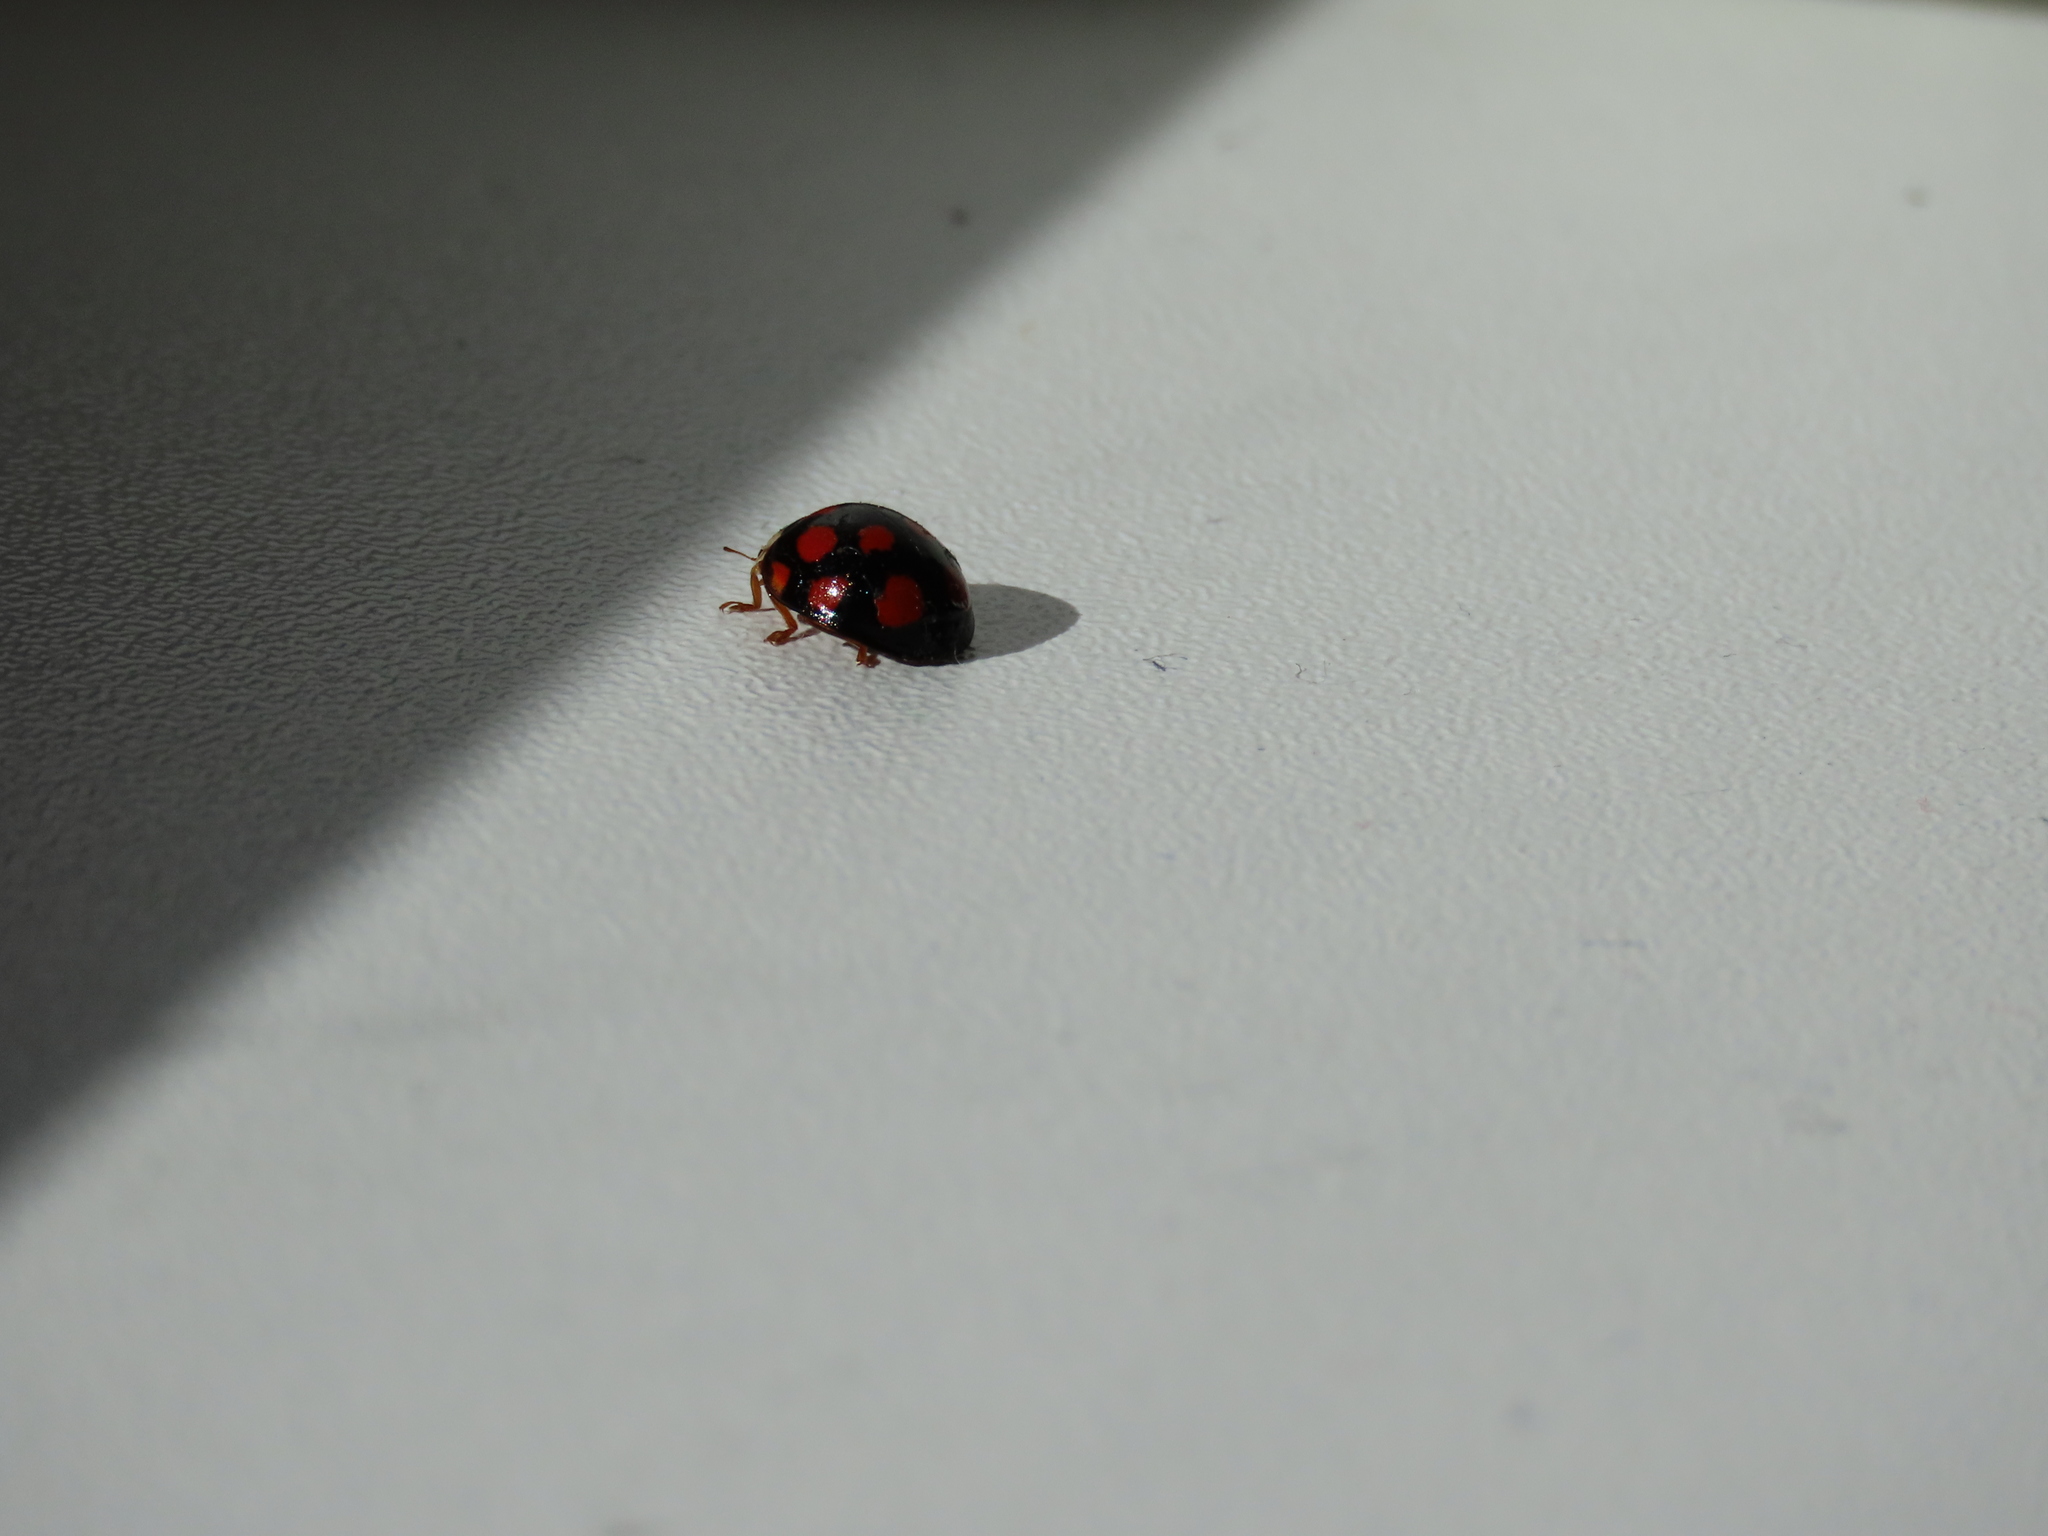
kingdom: Animalia
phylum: Arthropoda
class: Insecta
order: Coleoptera
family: Coccinellidae
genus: Harmonia
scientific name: Harmonia axyridis
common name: Harlequin ladybird
